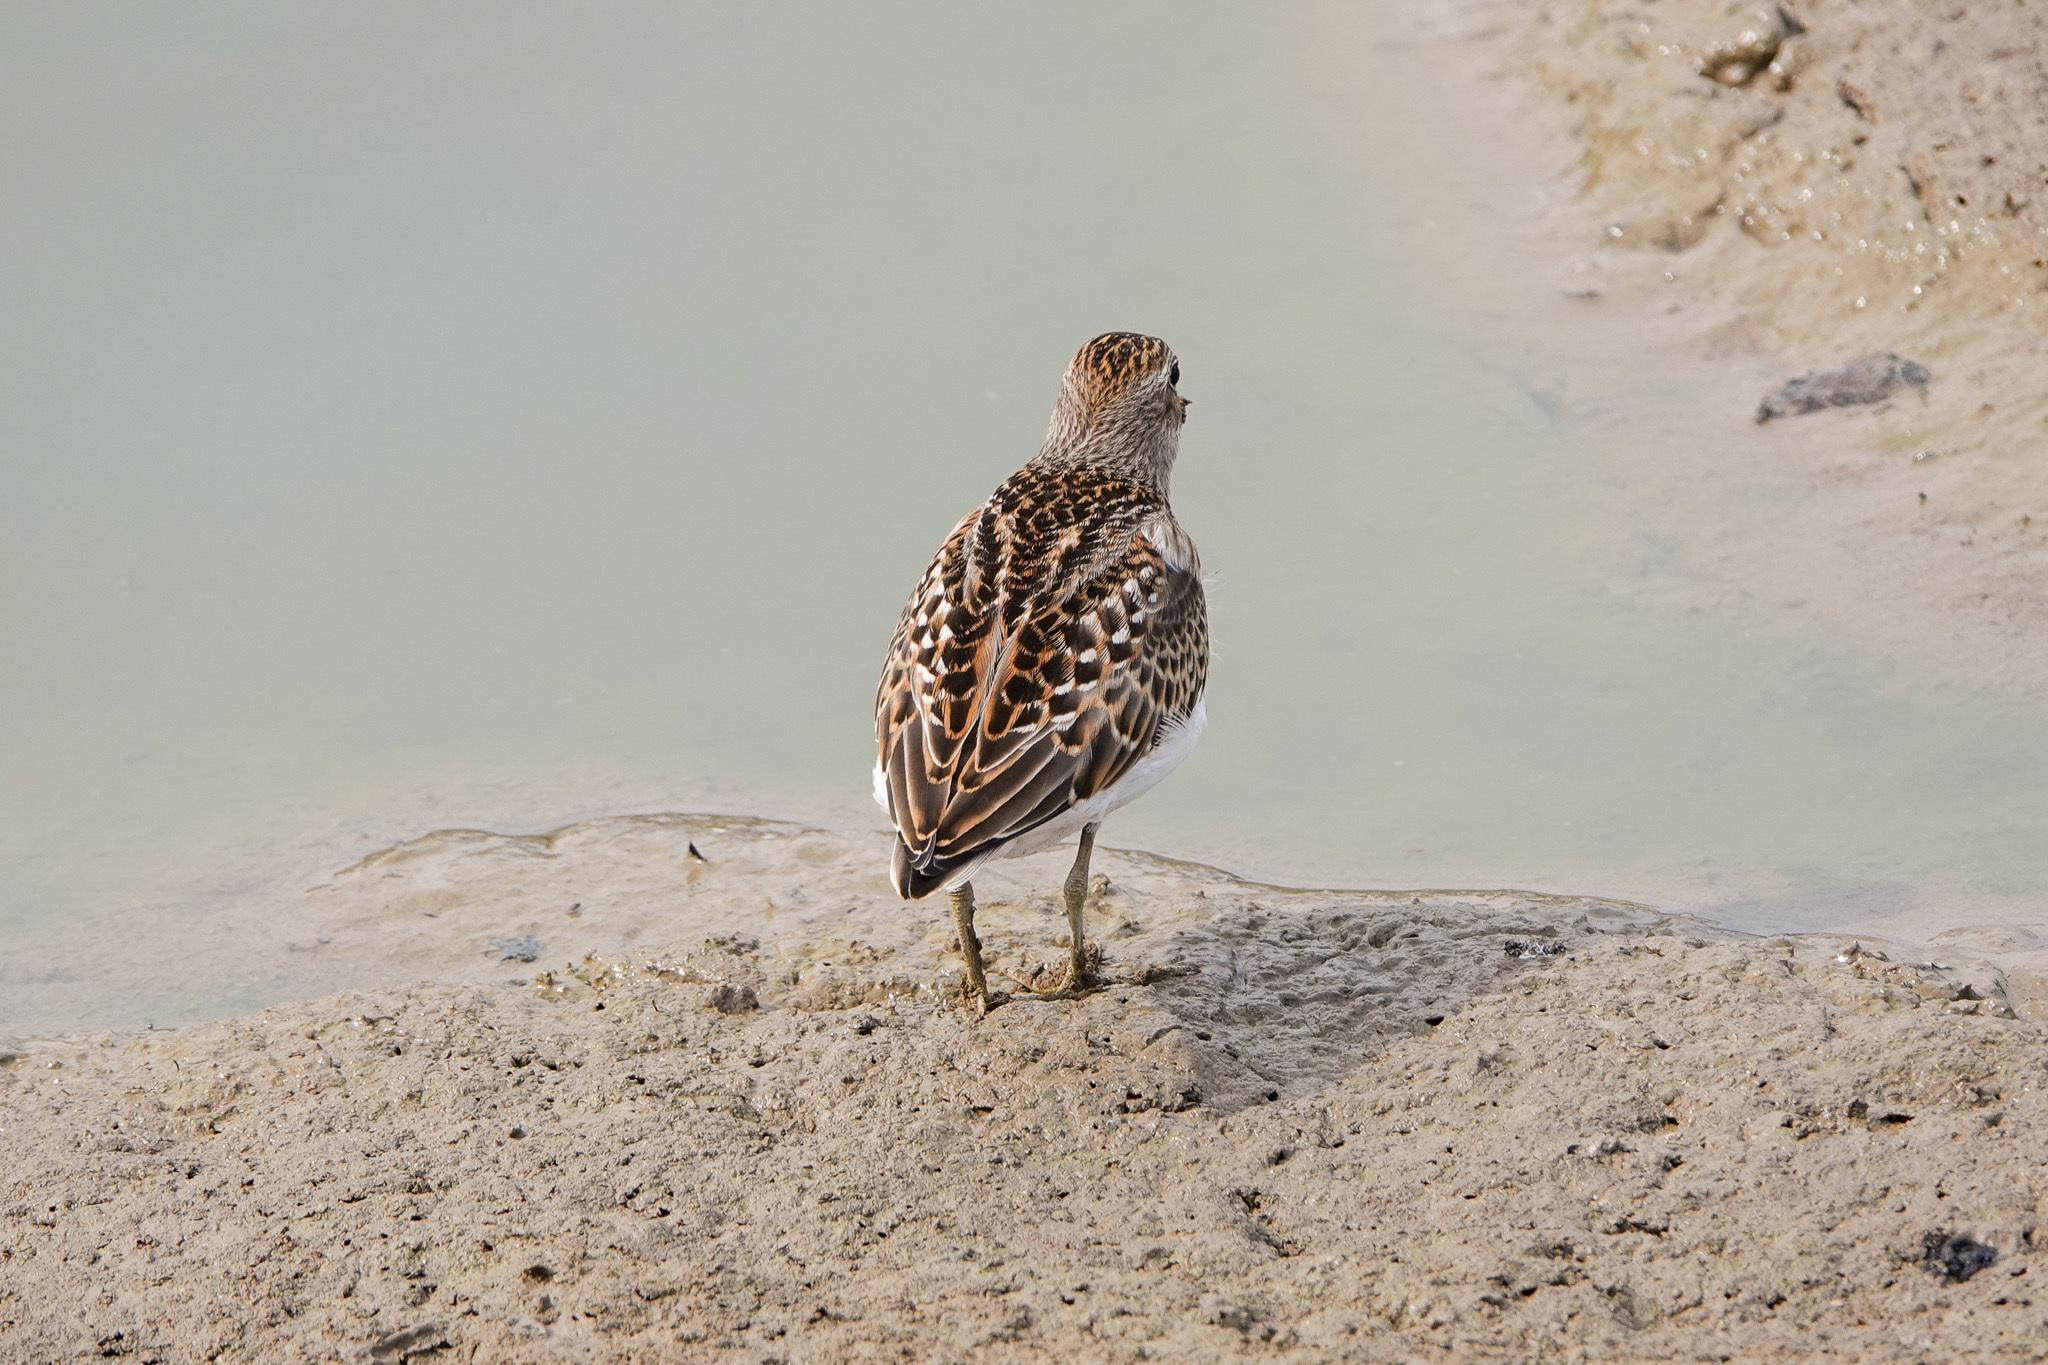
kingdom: Animalia
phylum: Chordata
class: Aves
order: Charadriiformes
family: Scolopacidae
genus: Calidris
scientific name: Calidris minutilla
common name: Least sandpiper
